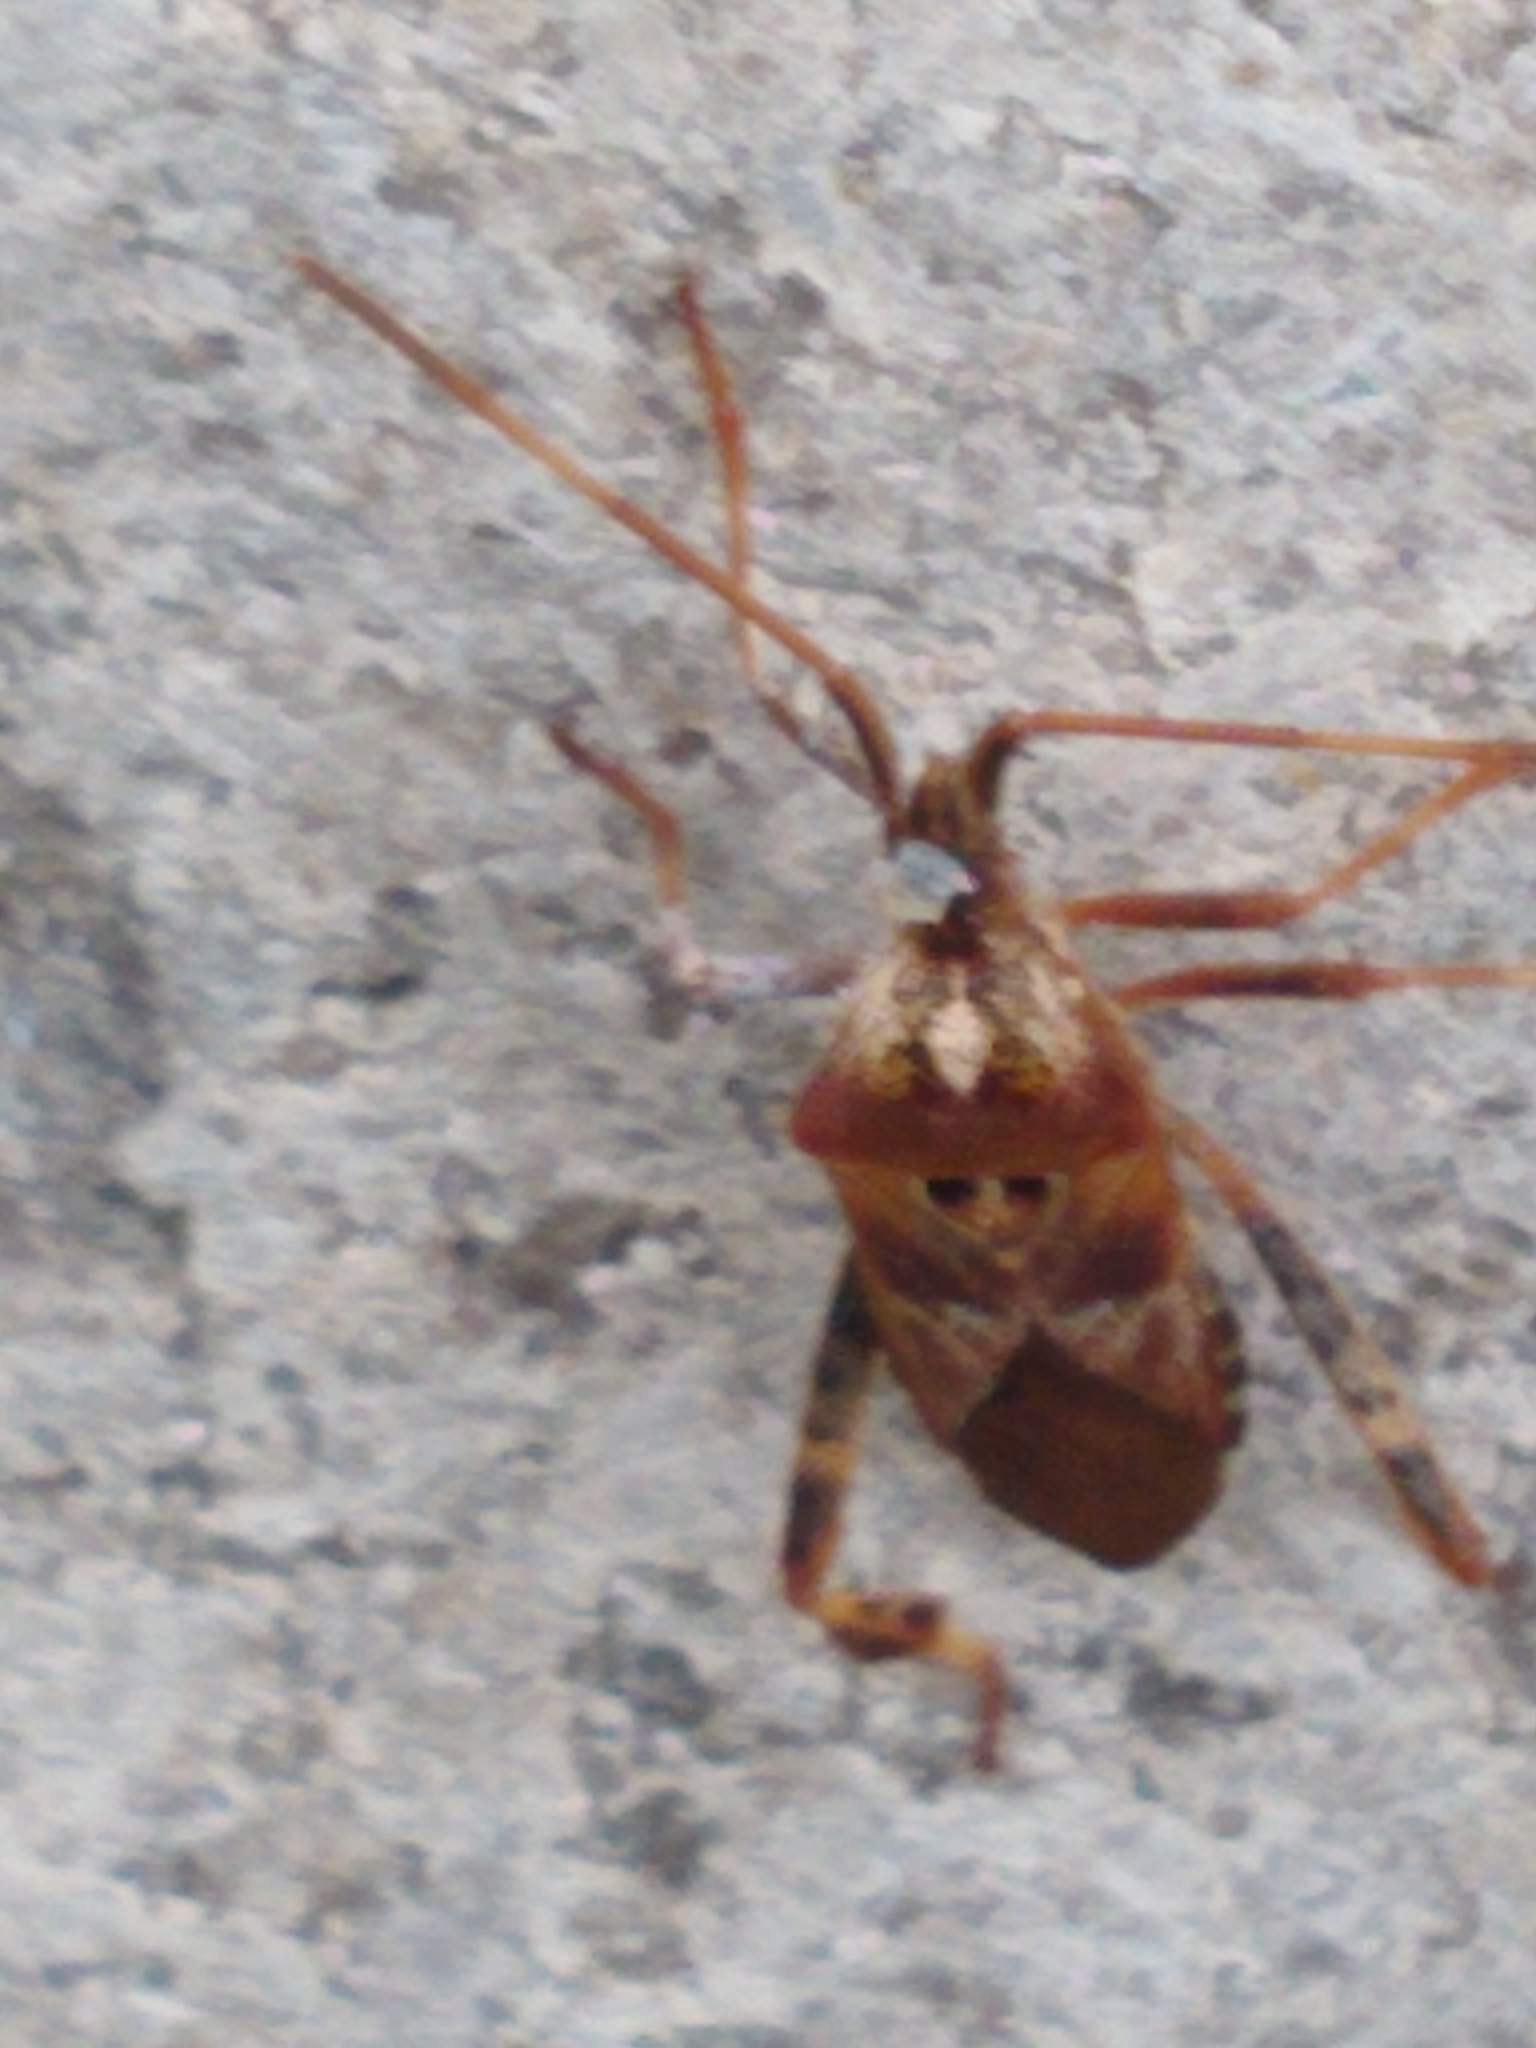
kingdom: Animalia
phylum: Arthropoda
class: Insecta
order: Hemiptera
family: Coreidae
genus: Leptoglossus
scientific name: Leptoglossus occidentalis
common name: Western conifer-seed bug
